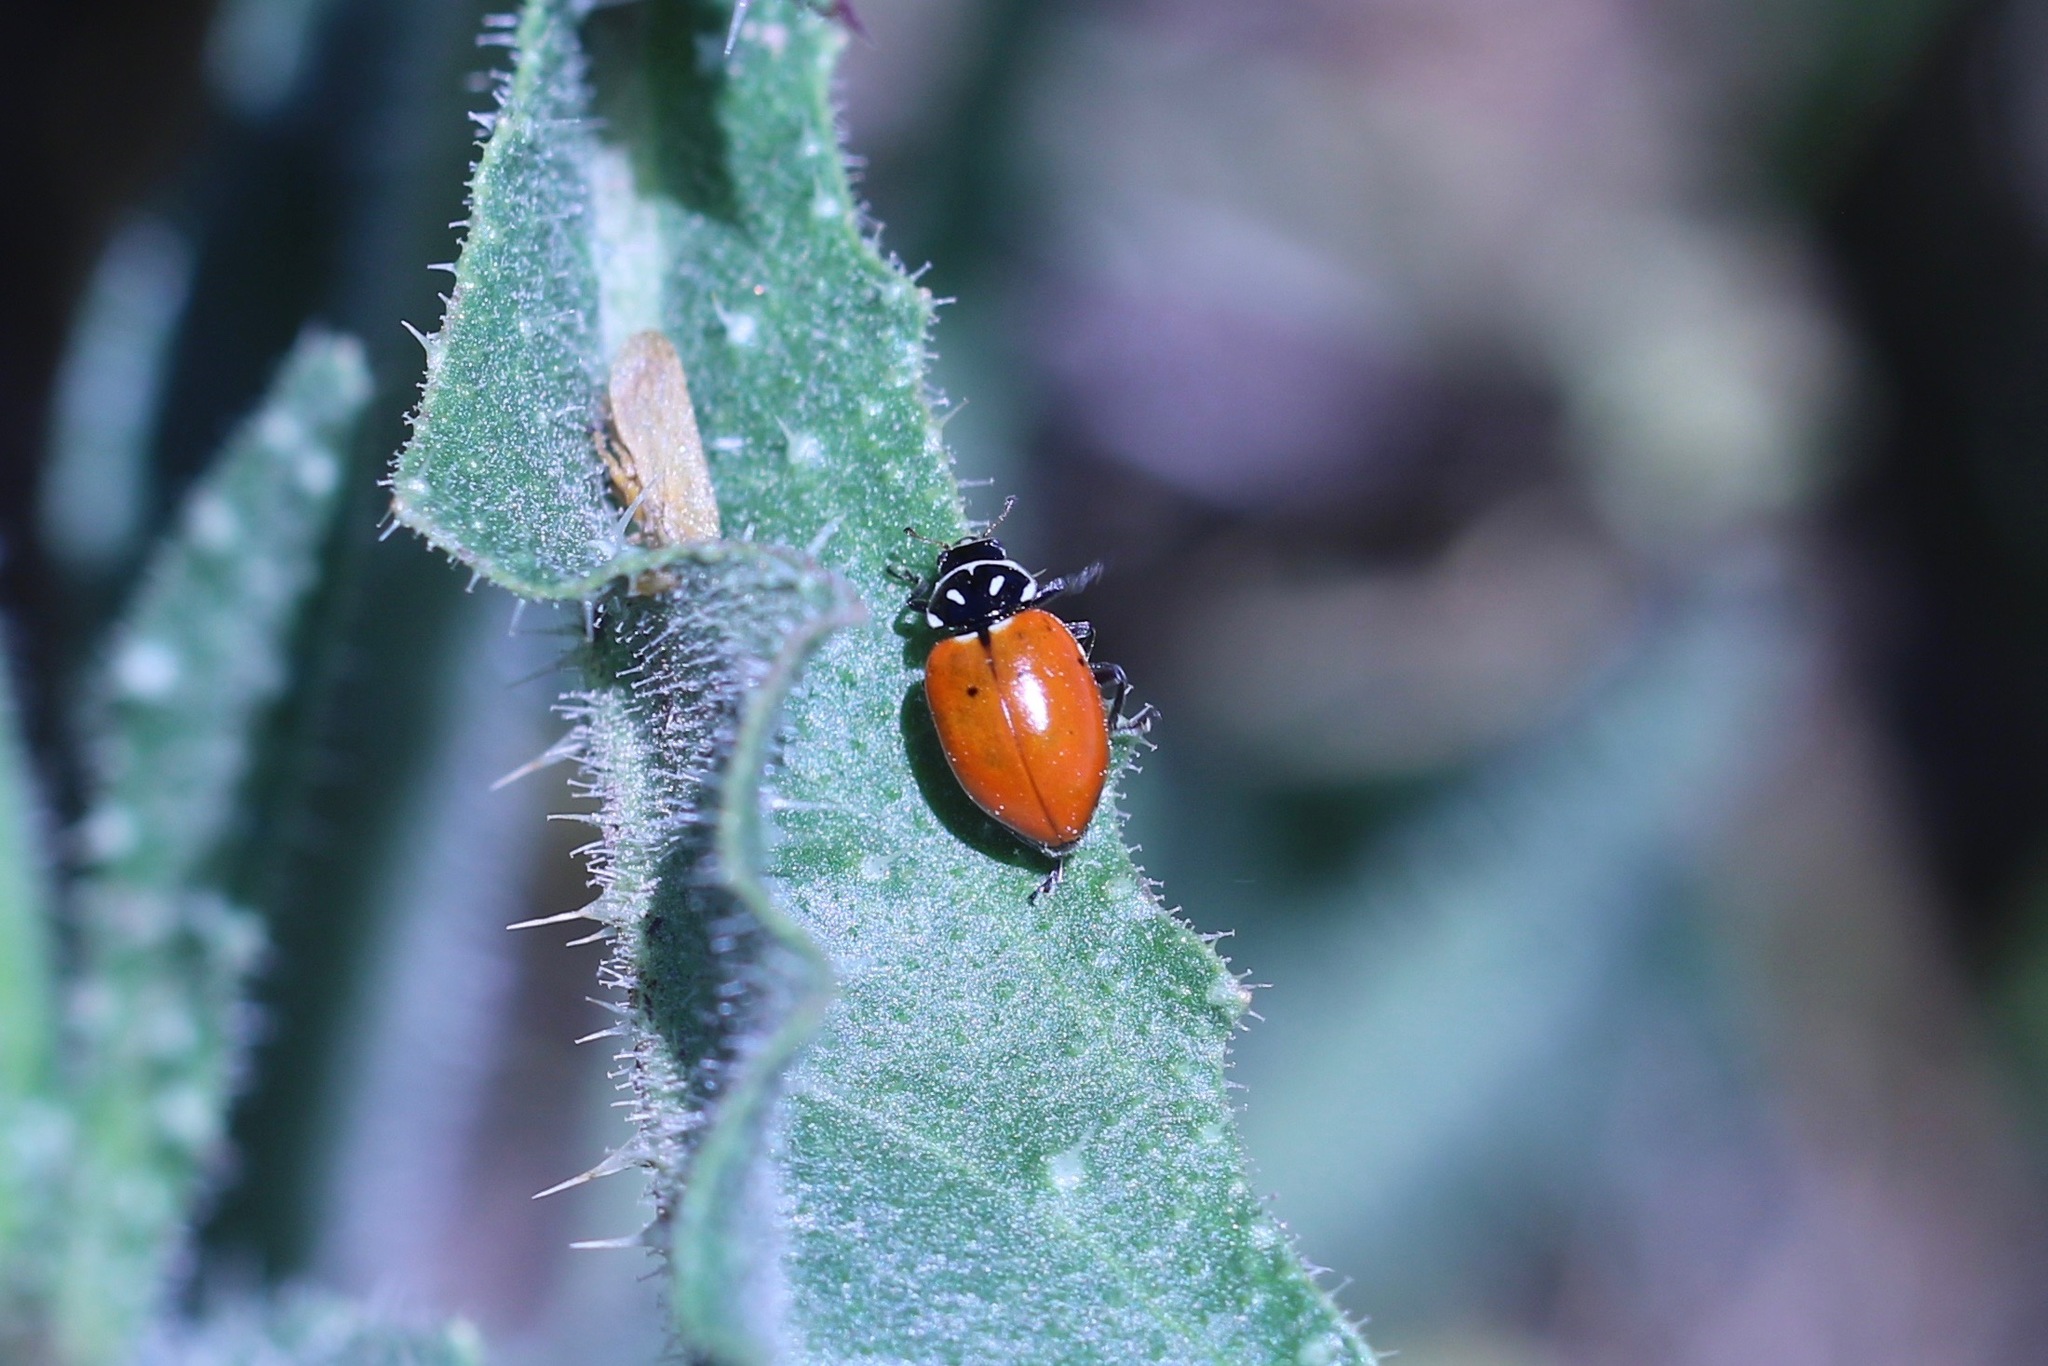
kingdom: Animalia
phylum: Arthropoda
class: Insecta
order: Coleoptera
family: Coccinellidae
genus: Hippodamia
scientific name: Hippodamia convergens
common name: Convergent lady beetle
